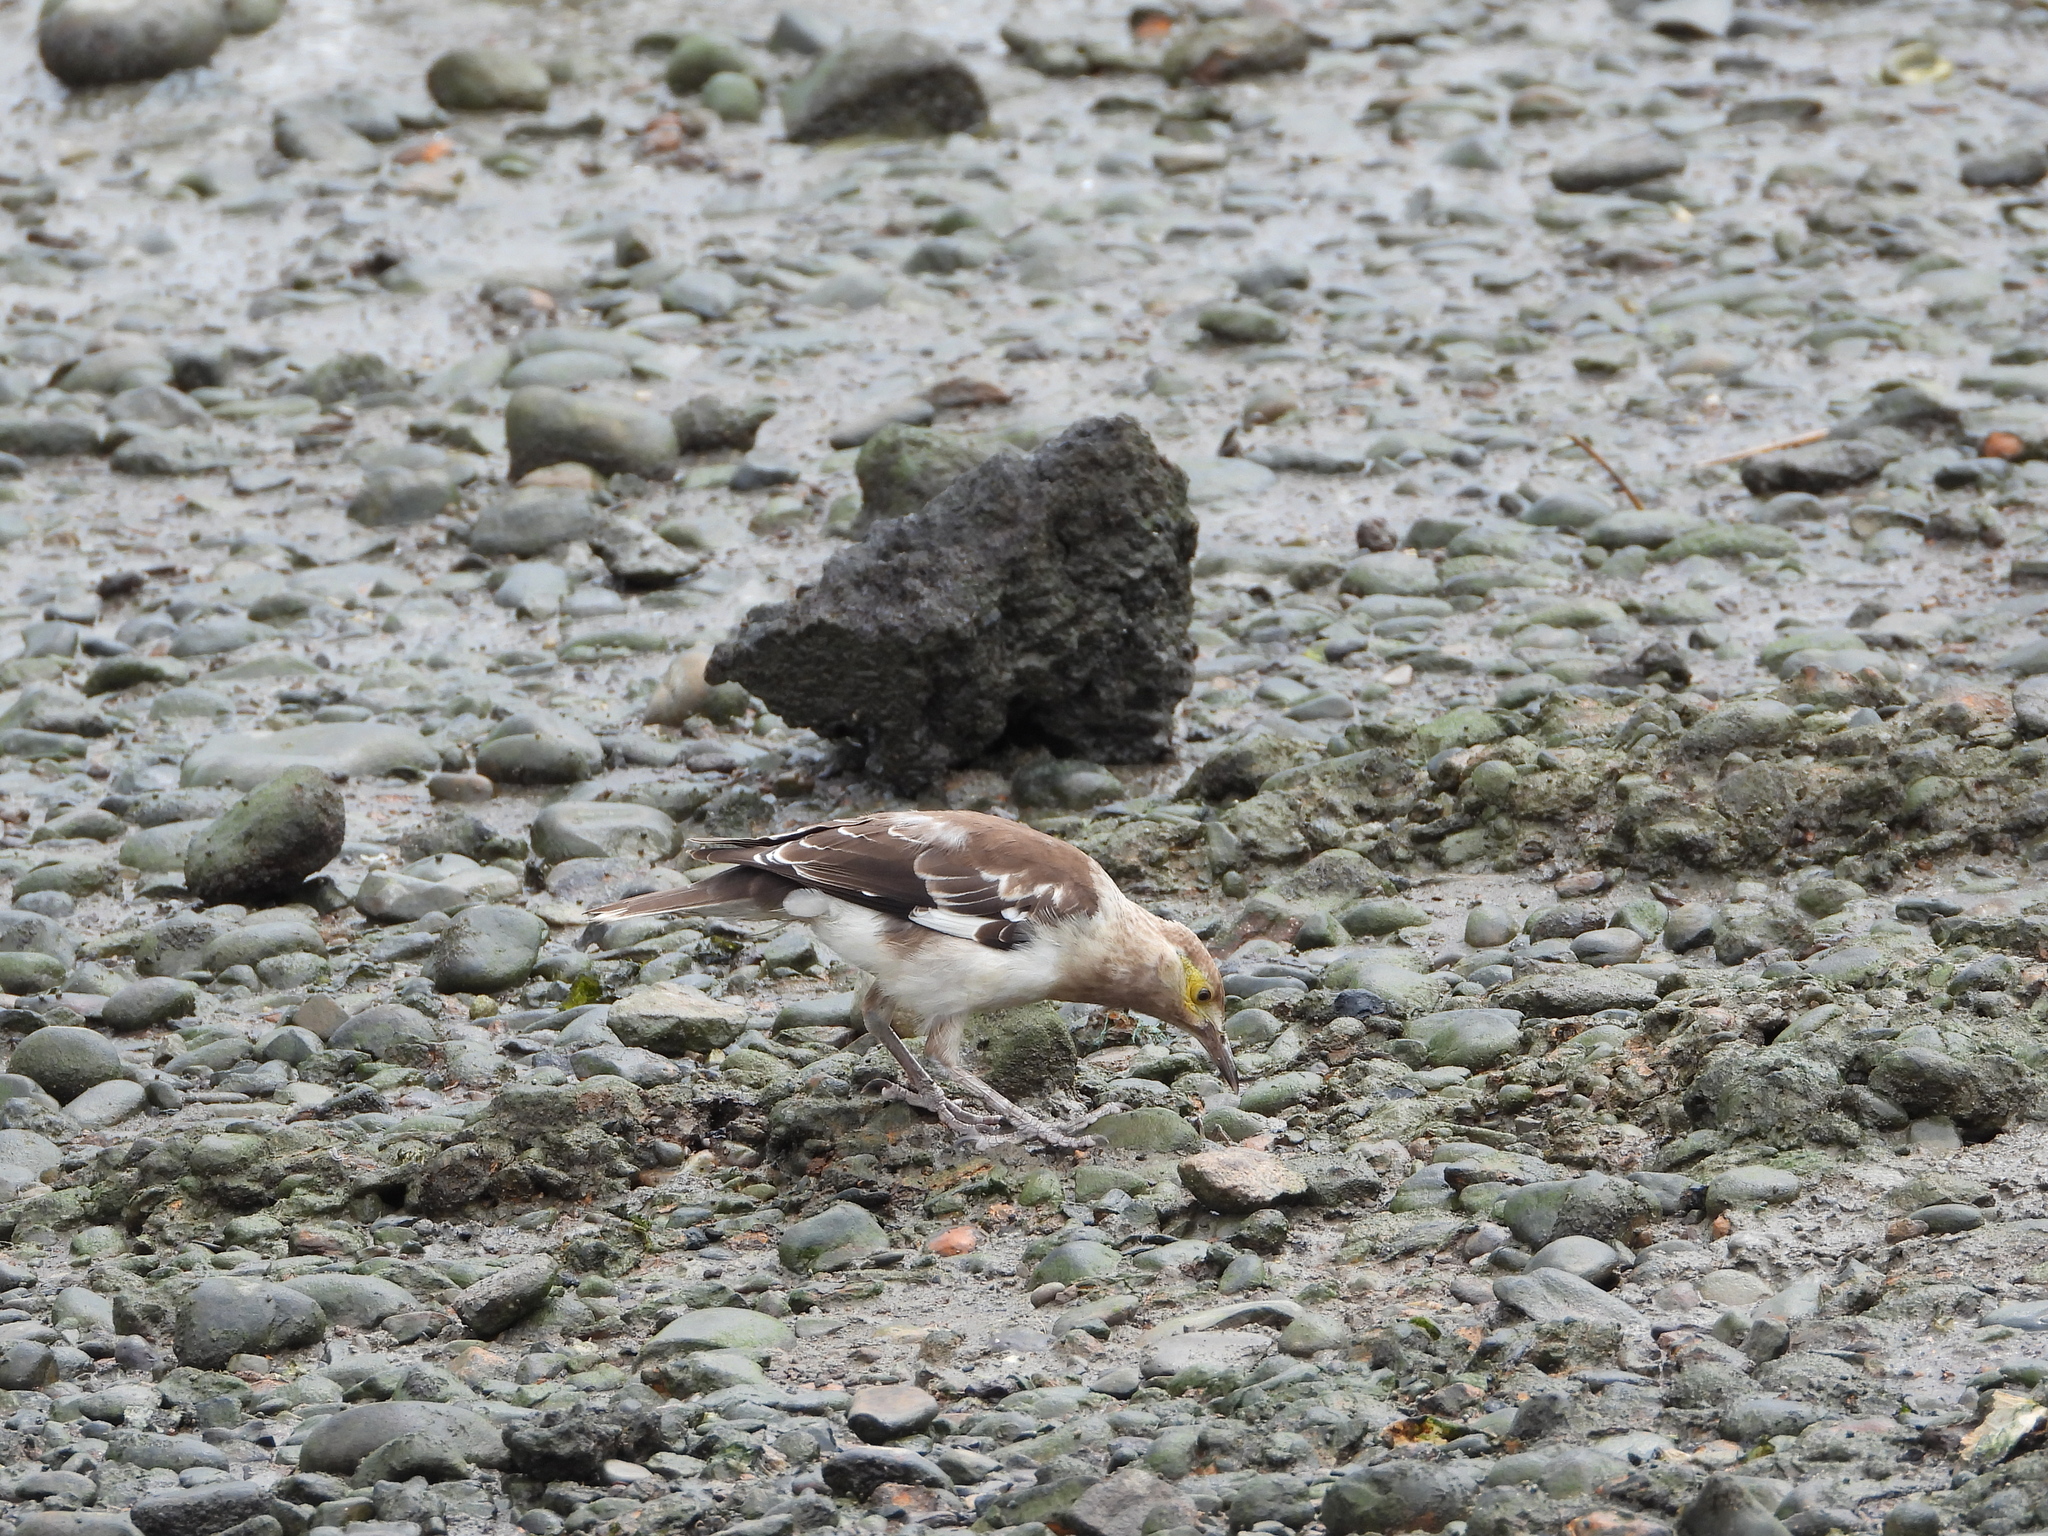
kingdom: Animalia
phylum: Chordata
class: Aves
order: Passeriformes
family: Sturnidae
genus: Gracupica
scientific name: Gracupica nigricollis
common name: Black-collared starling
